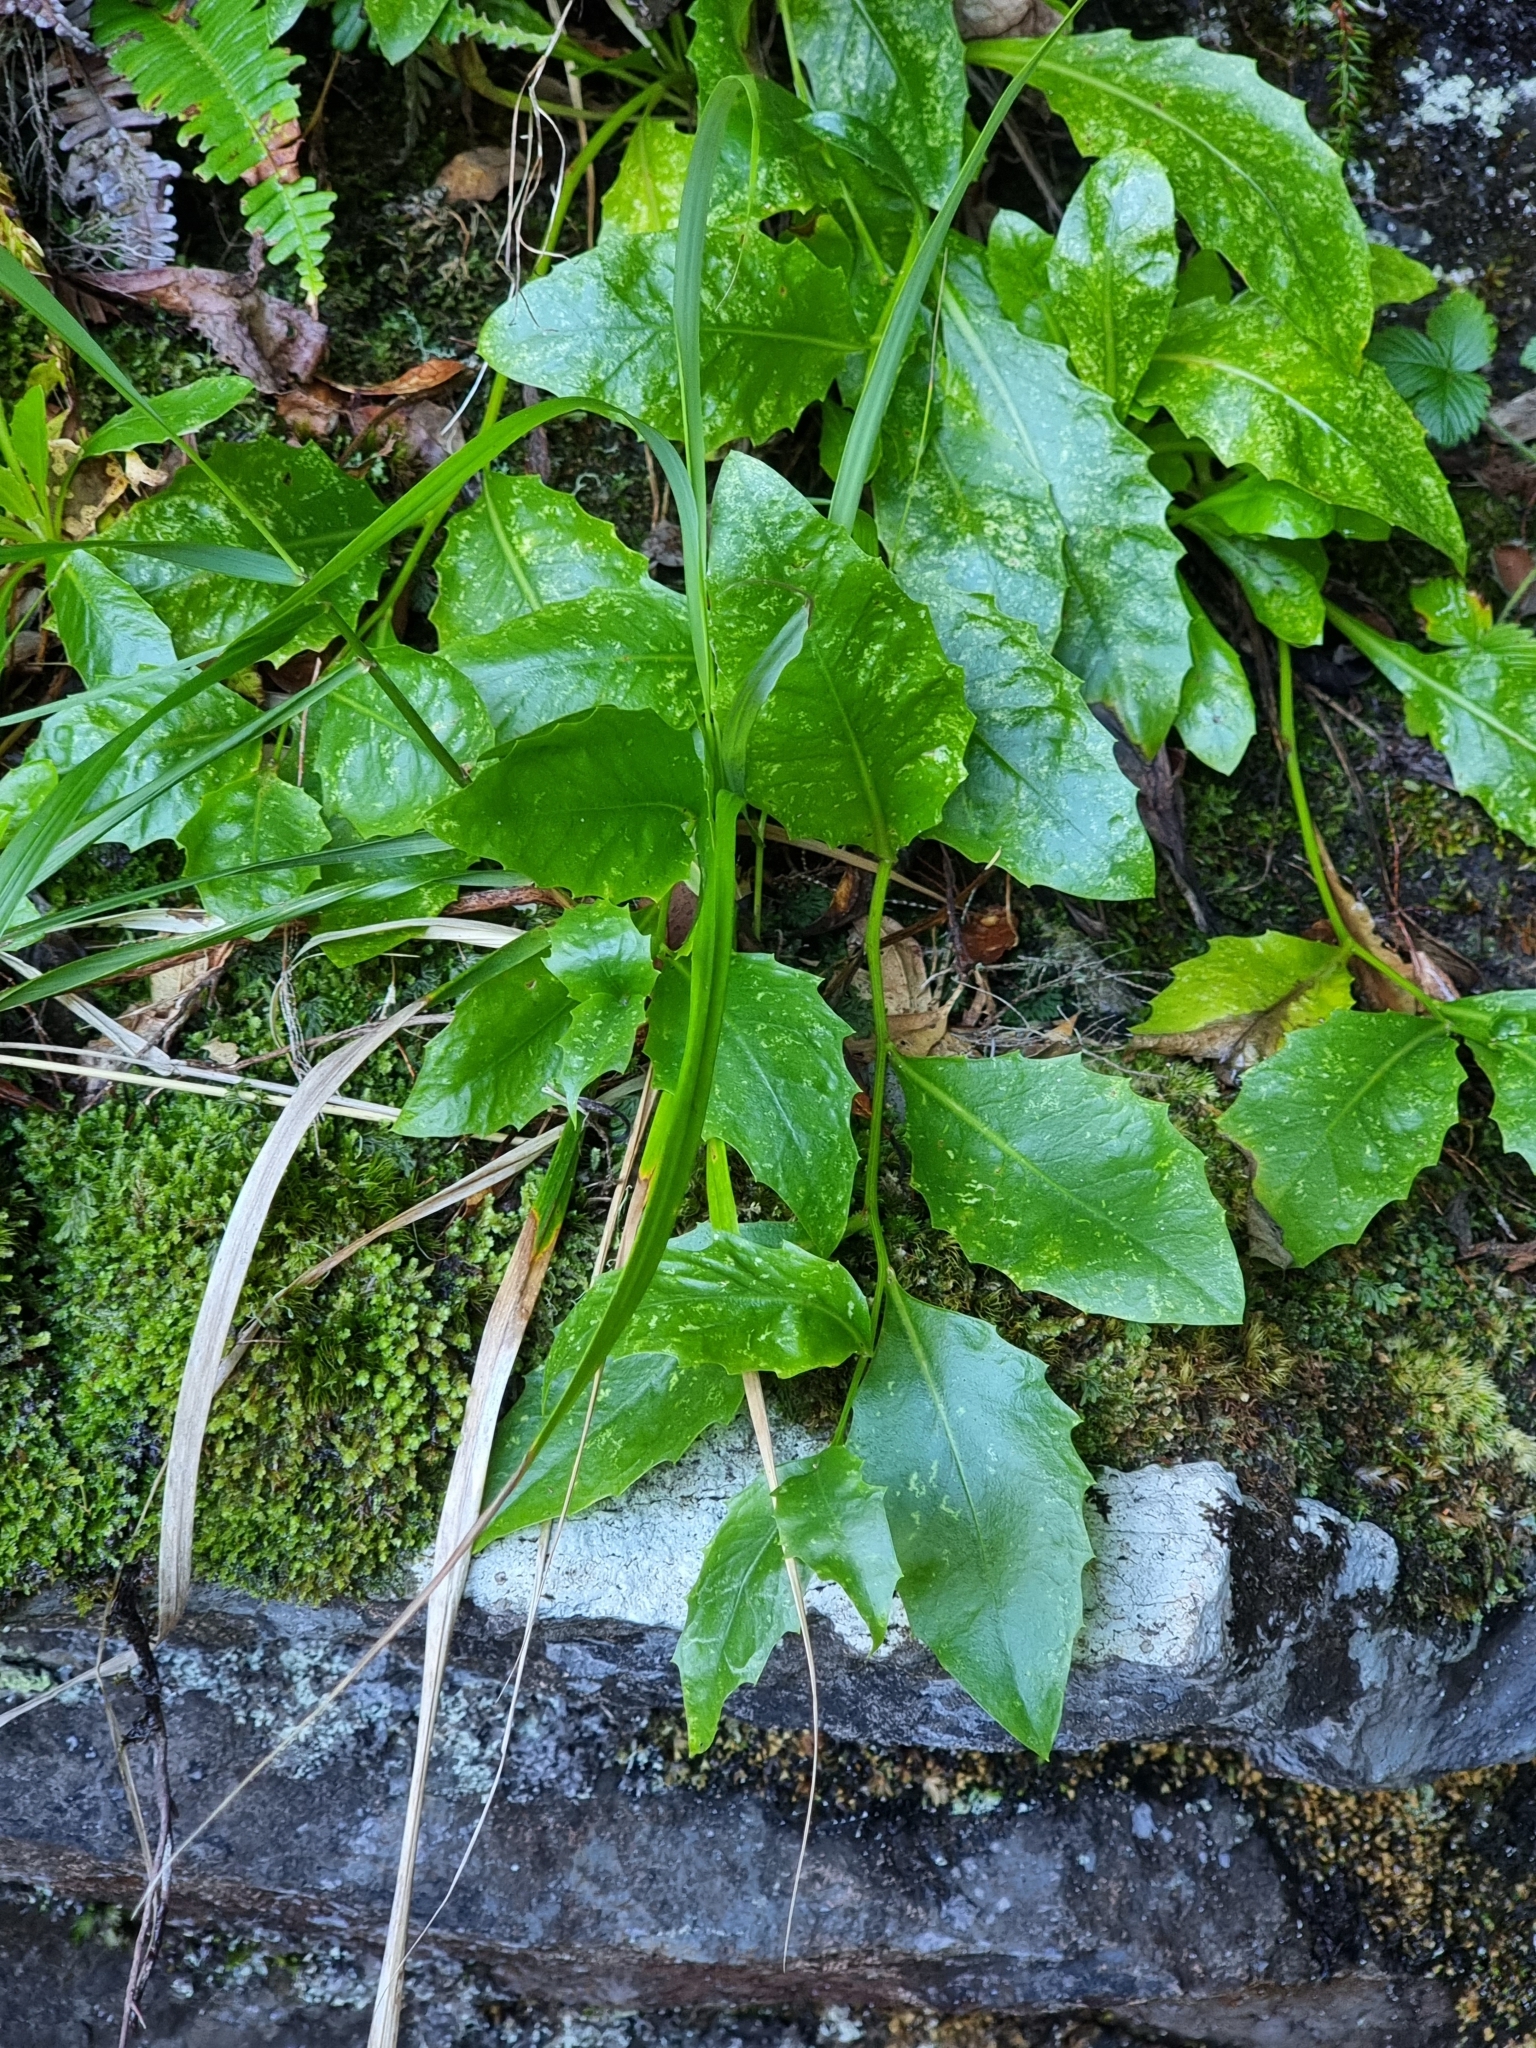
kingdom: Plantae
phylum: Tracheophyta
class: Magnoliopsida
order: Asterales
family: Asteraceae
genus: Tolpis
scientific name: Tolpis macrorhiza
